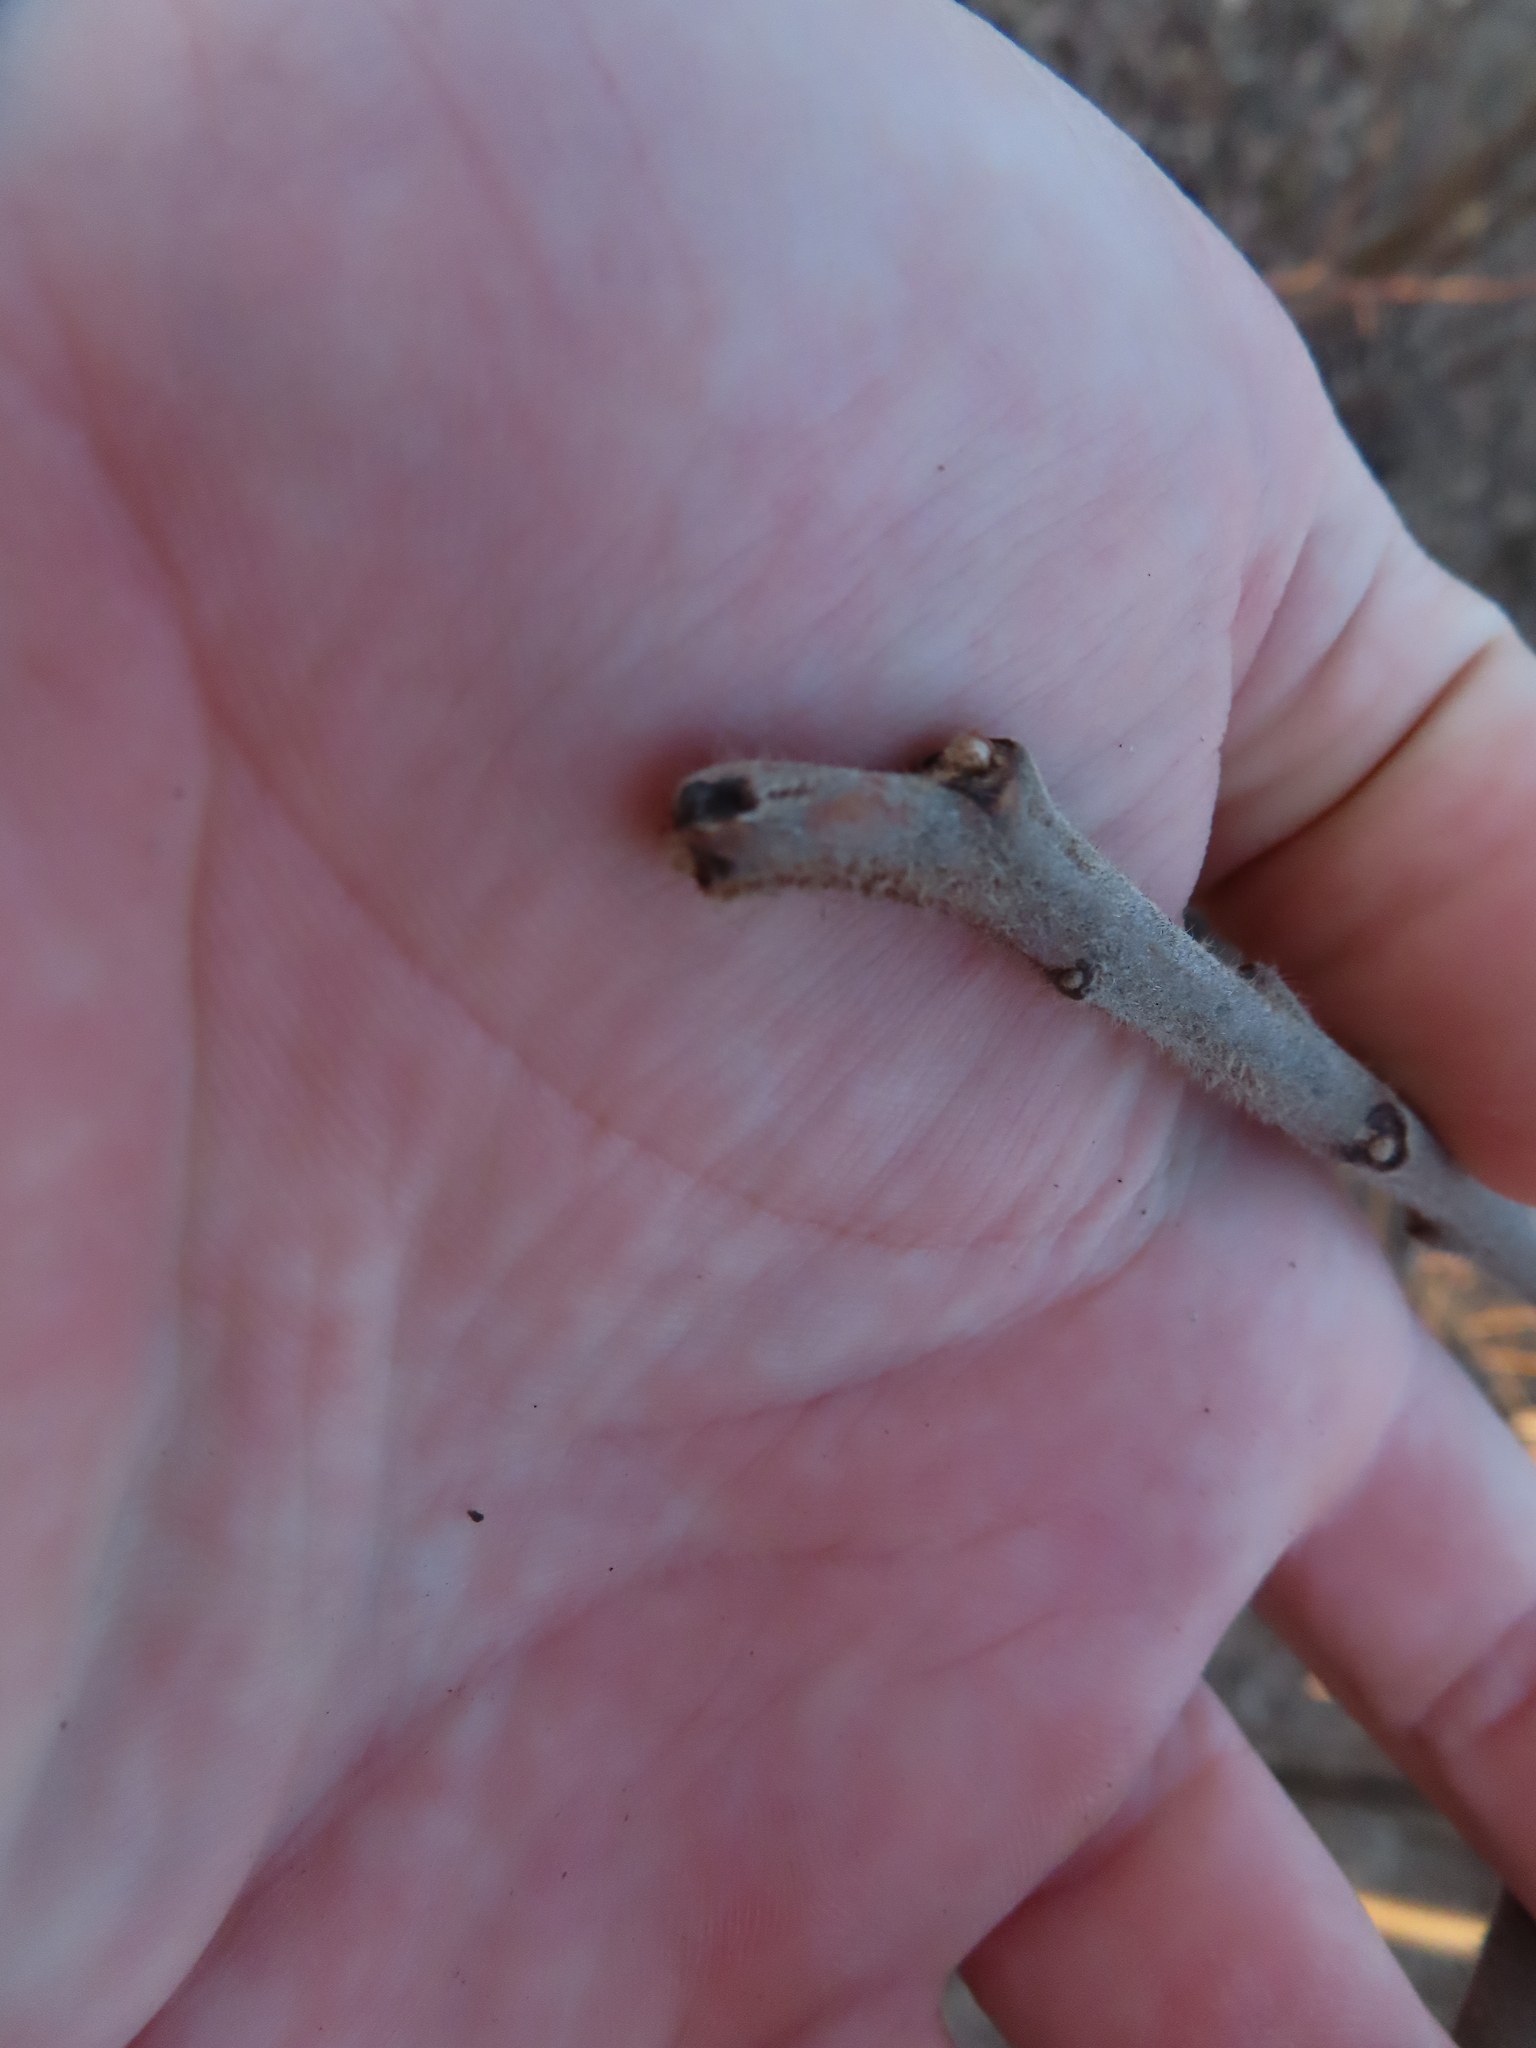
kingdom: Plantae
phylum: Tracheophyta
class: Magnoliopsida
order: Sapindales
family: Anacardiaceae
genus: Rhus
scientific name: Rhus typhina
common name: Staghorn sumac
